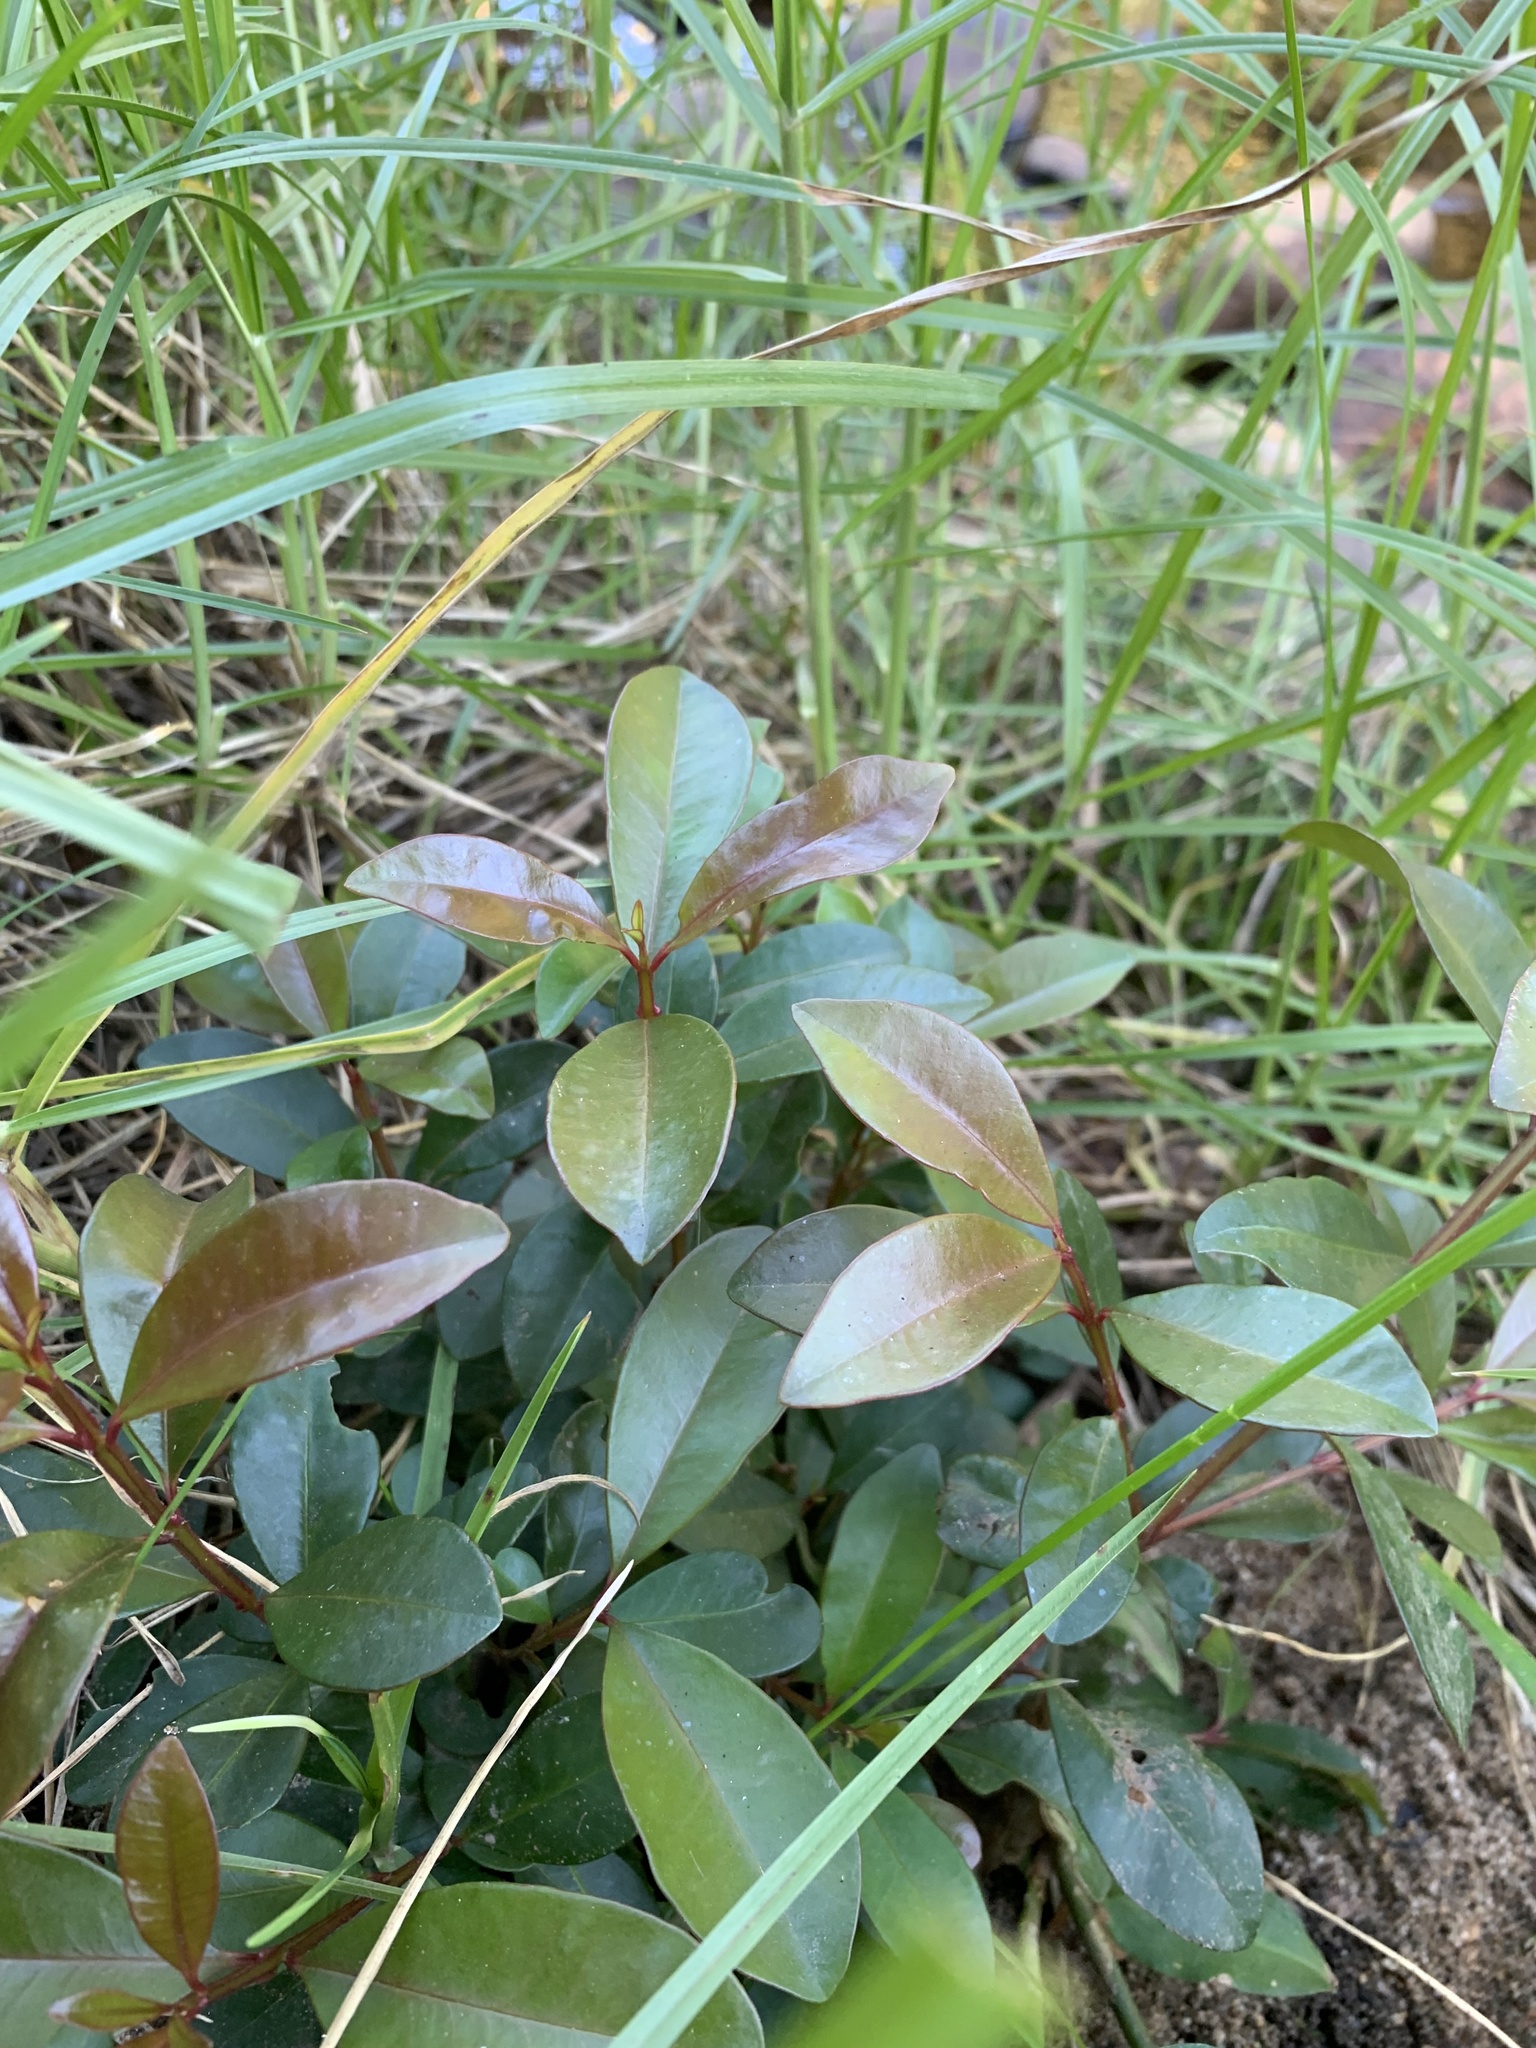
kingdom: Plantae
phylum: Tracheophyta
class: Magnoliopsida
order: Myrtales
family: Myrtaceae
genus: Syzygium
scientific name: Syzygium australe
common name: Australian brush-cherry
